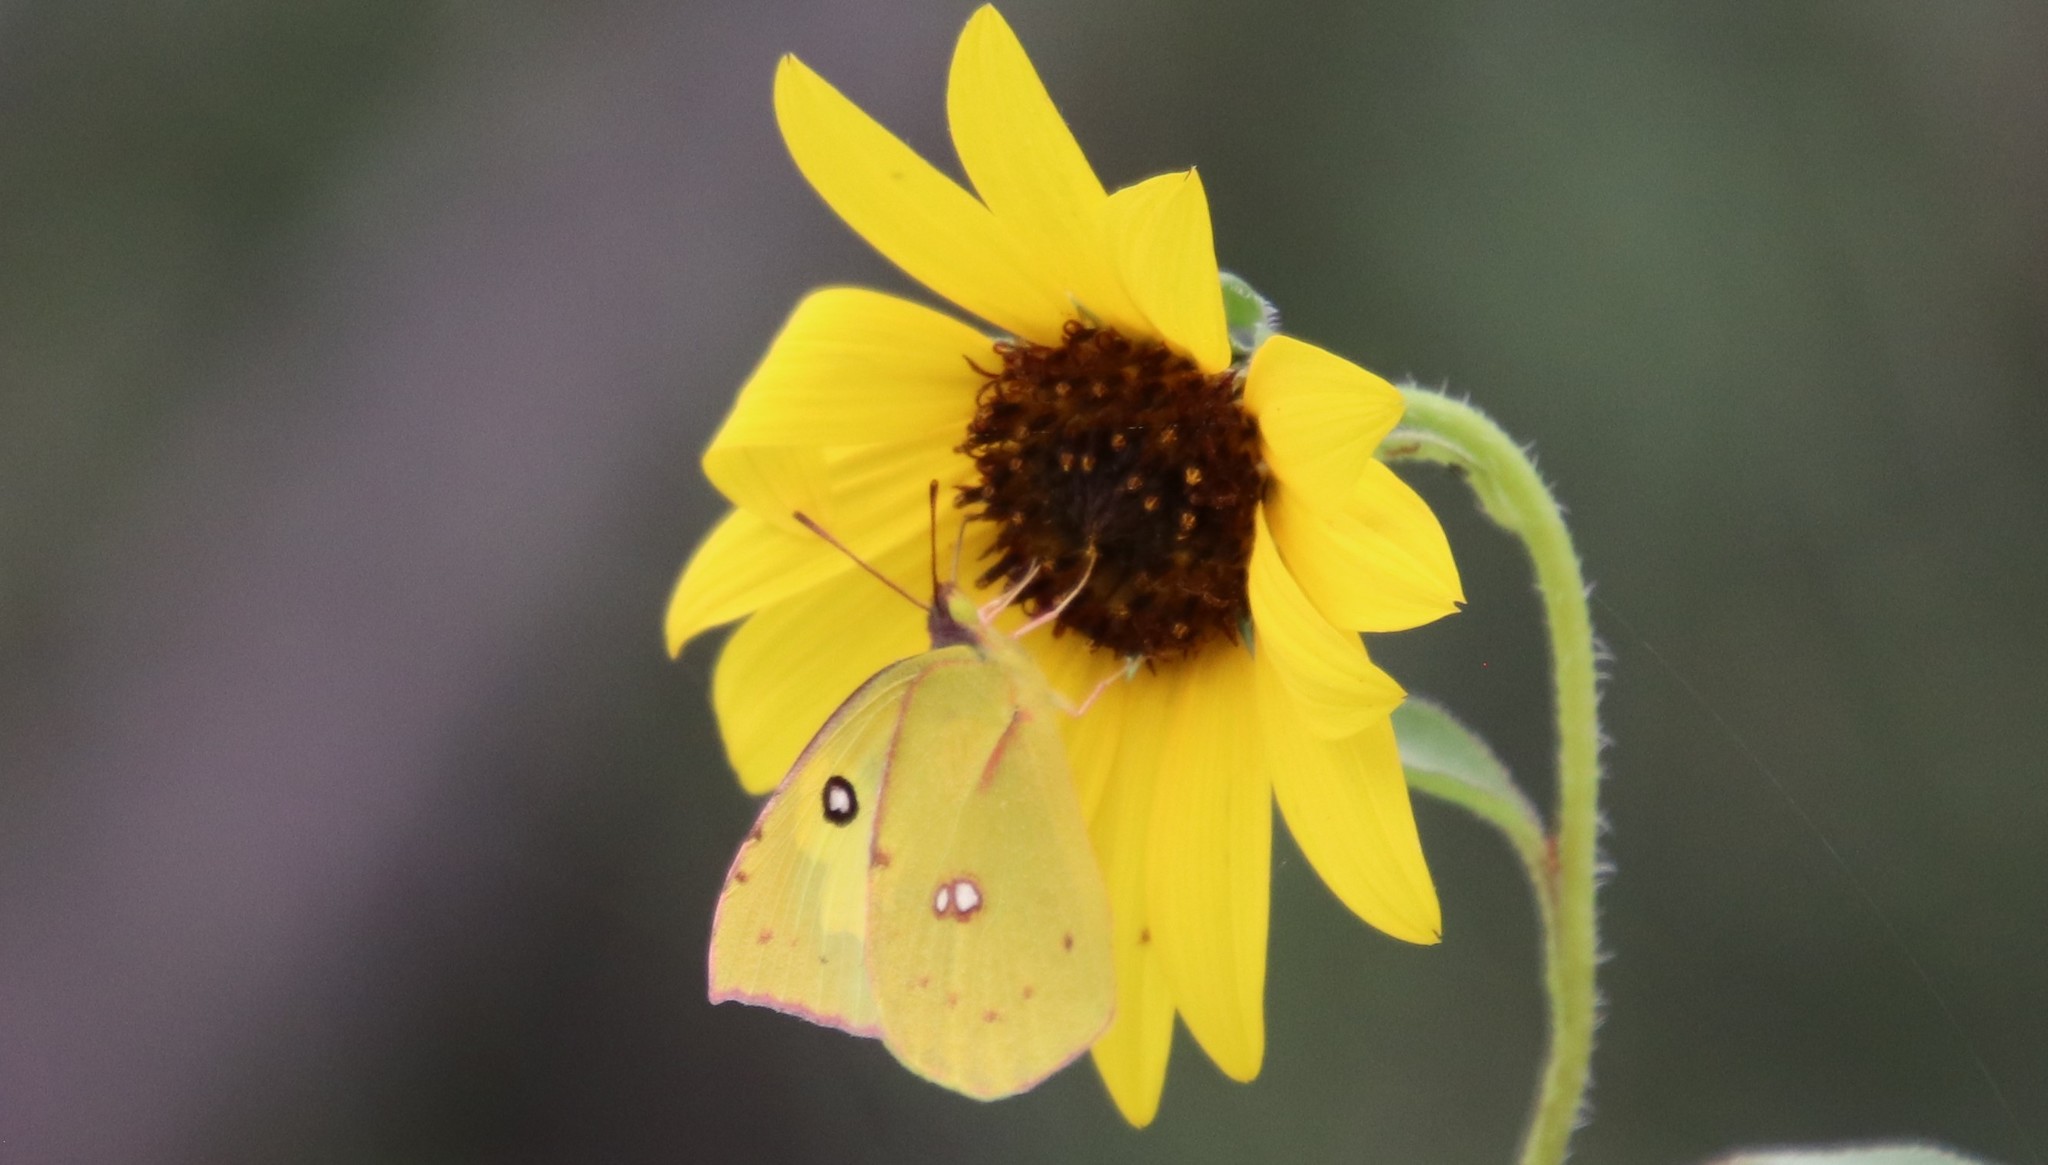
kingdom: Animalia
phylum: Arthropoda
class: Insecta
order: Lepidoptera
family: Pieridae
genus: Zerene
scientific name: Zerene cesonia
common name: Southern dogface
